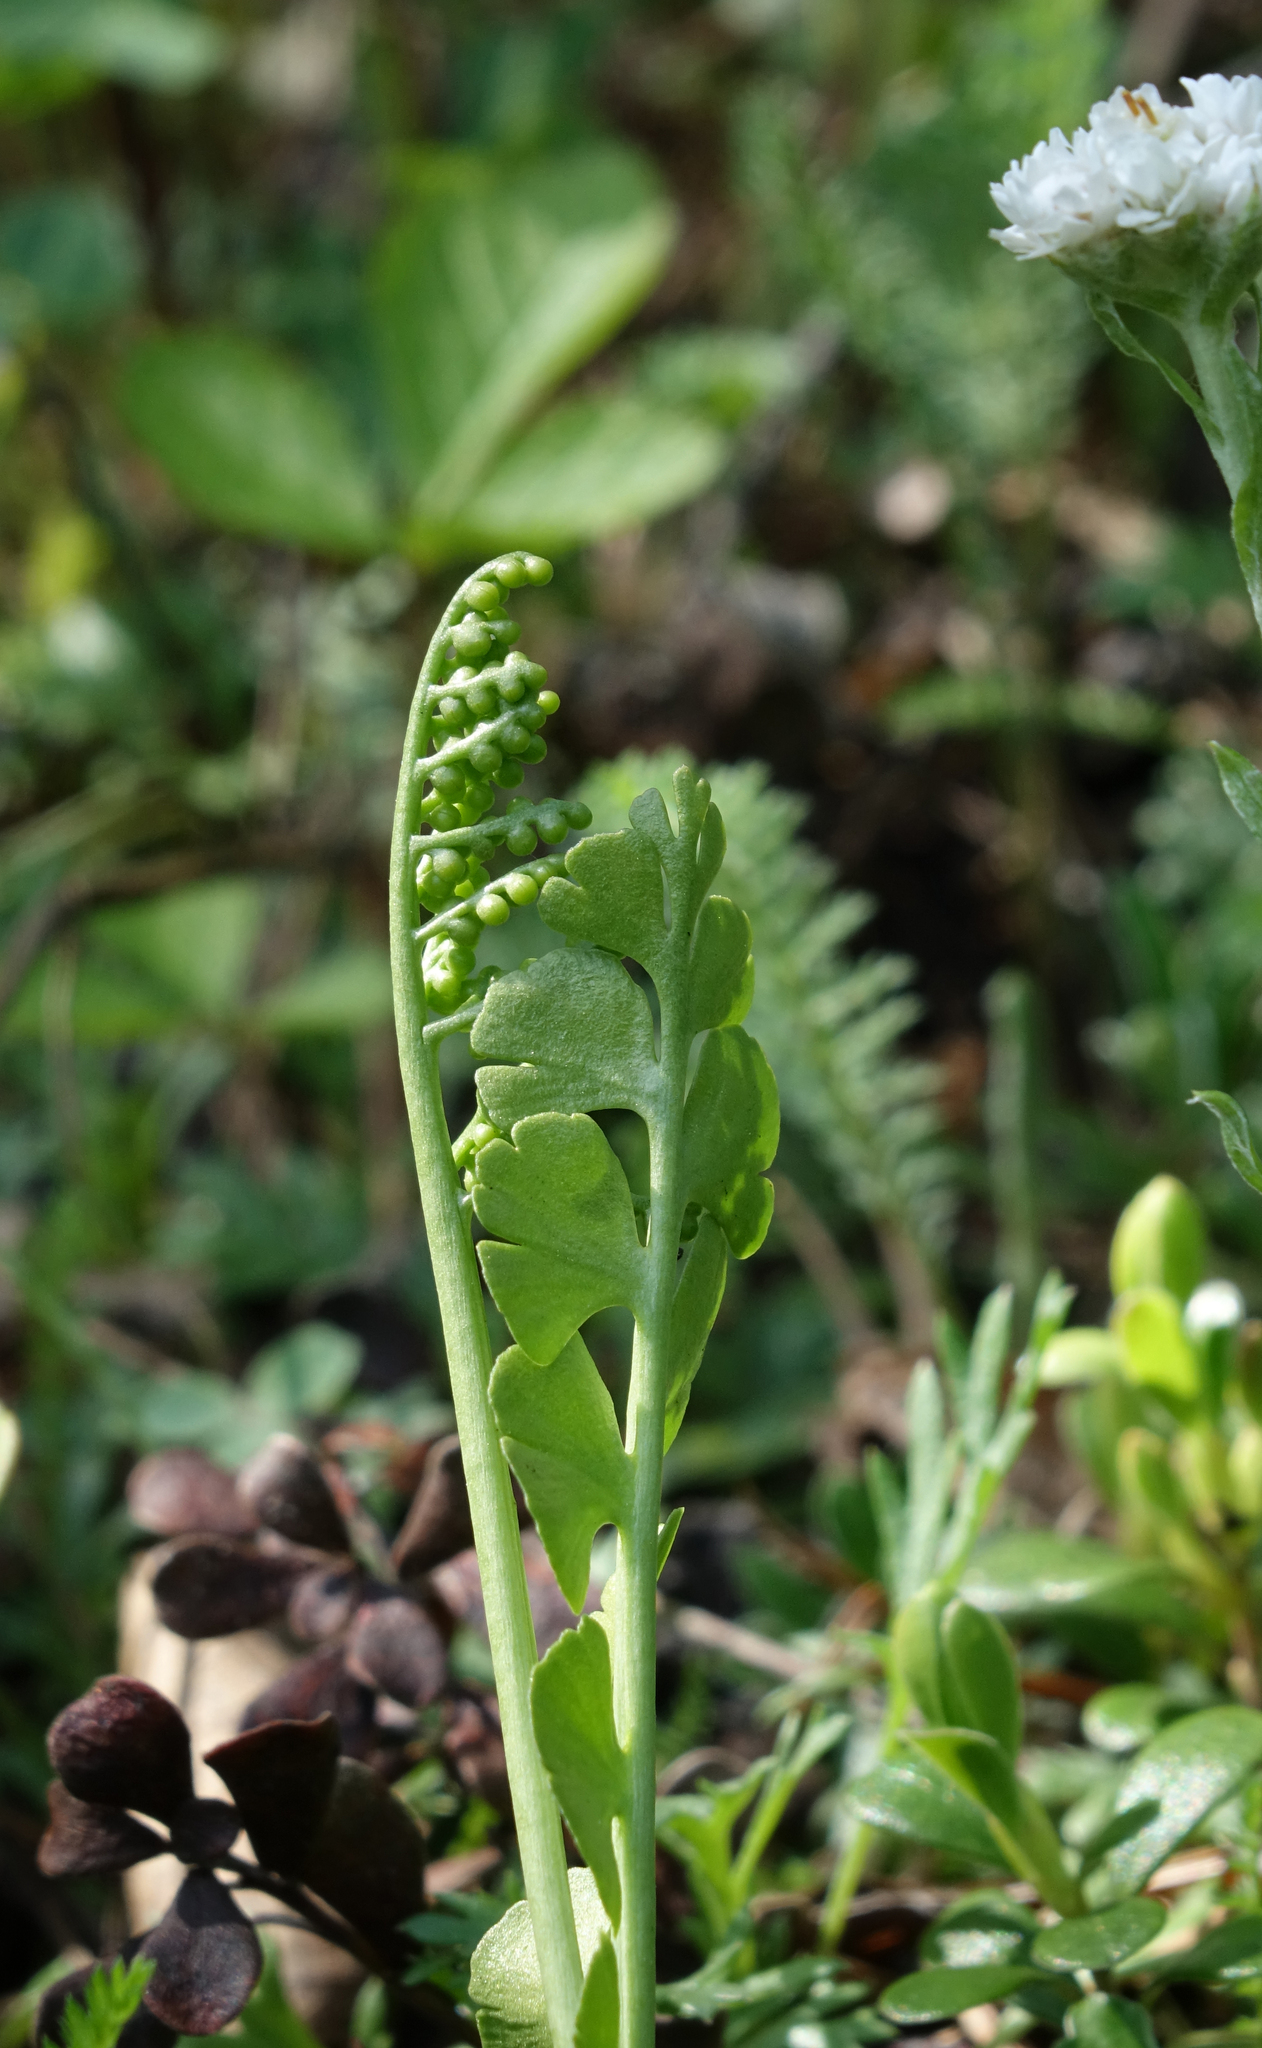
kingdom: Plantae
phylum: Tracheophyta
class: Polypodiopsida
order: Ophioglossales
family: Ophioglossaceae
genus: Botrychium
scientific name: Botrychium lunaria
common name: Moonwort
